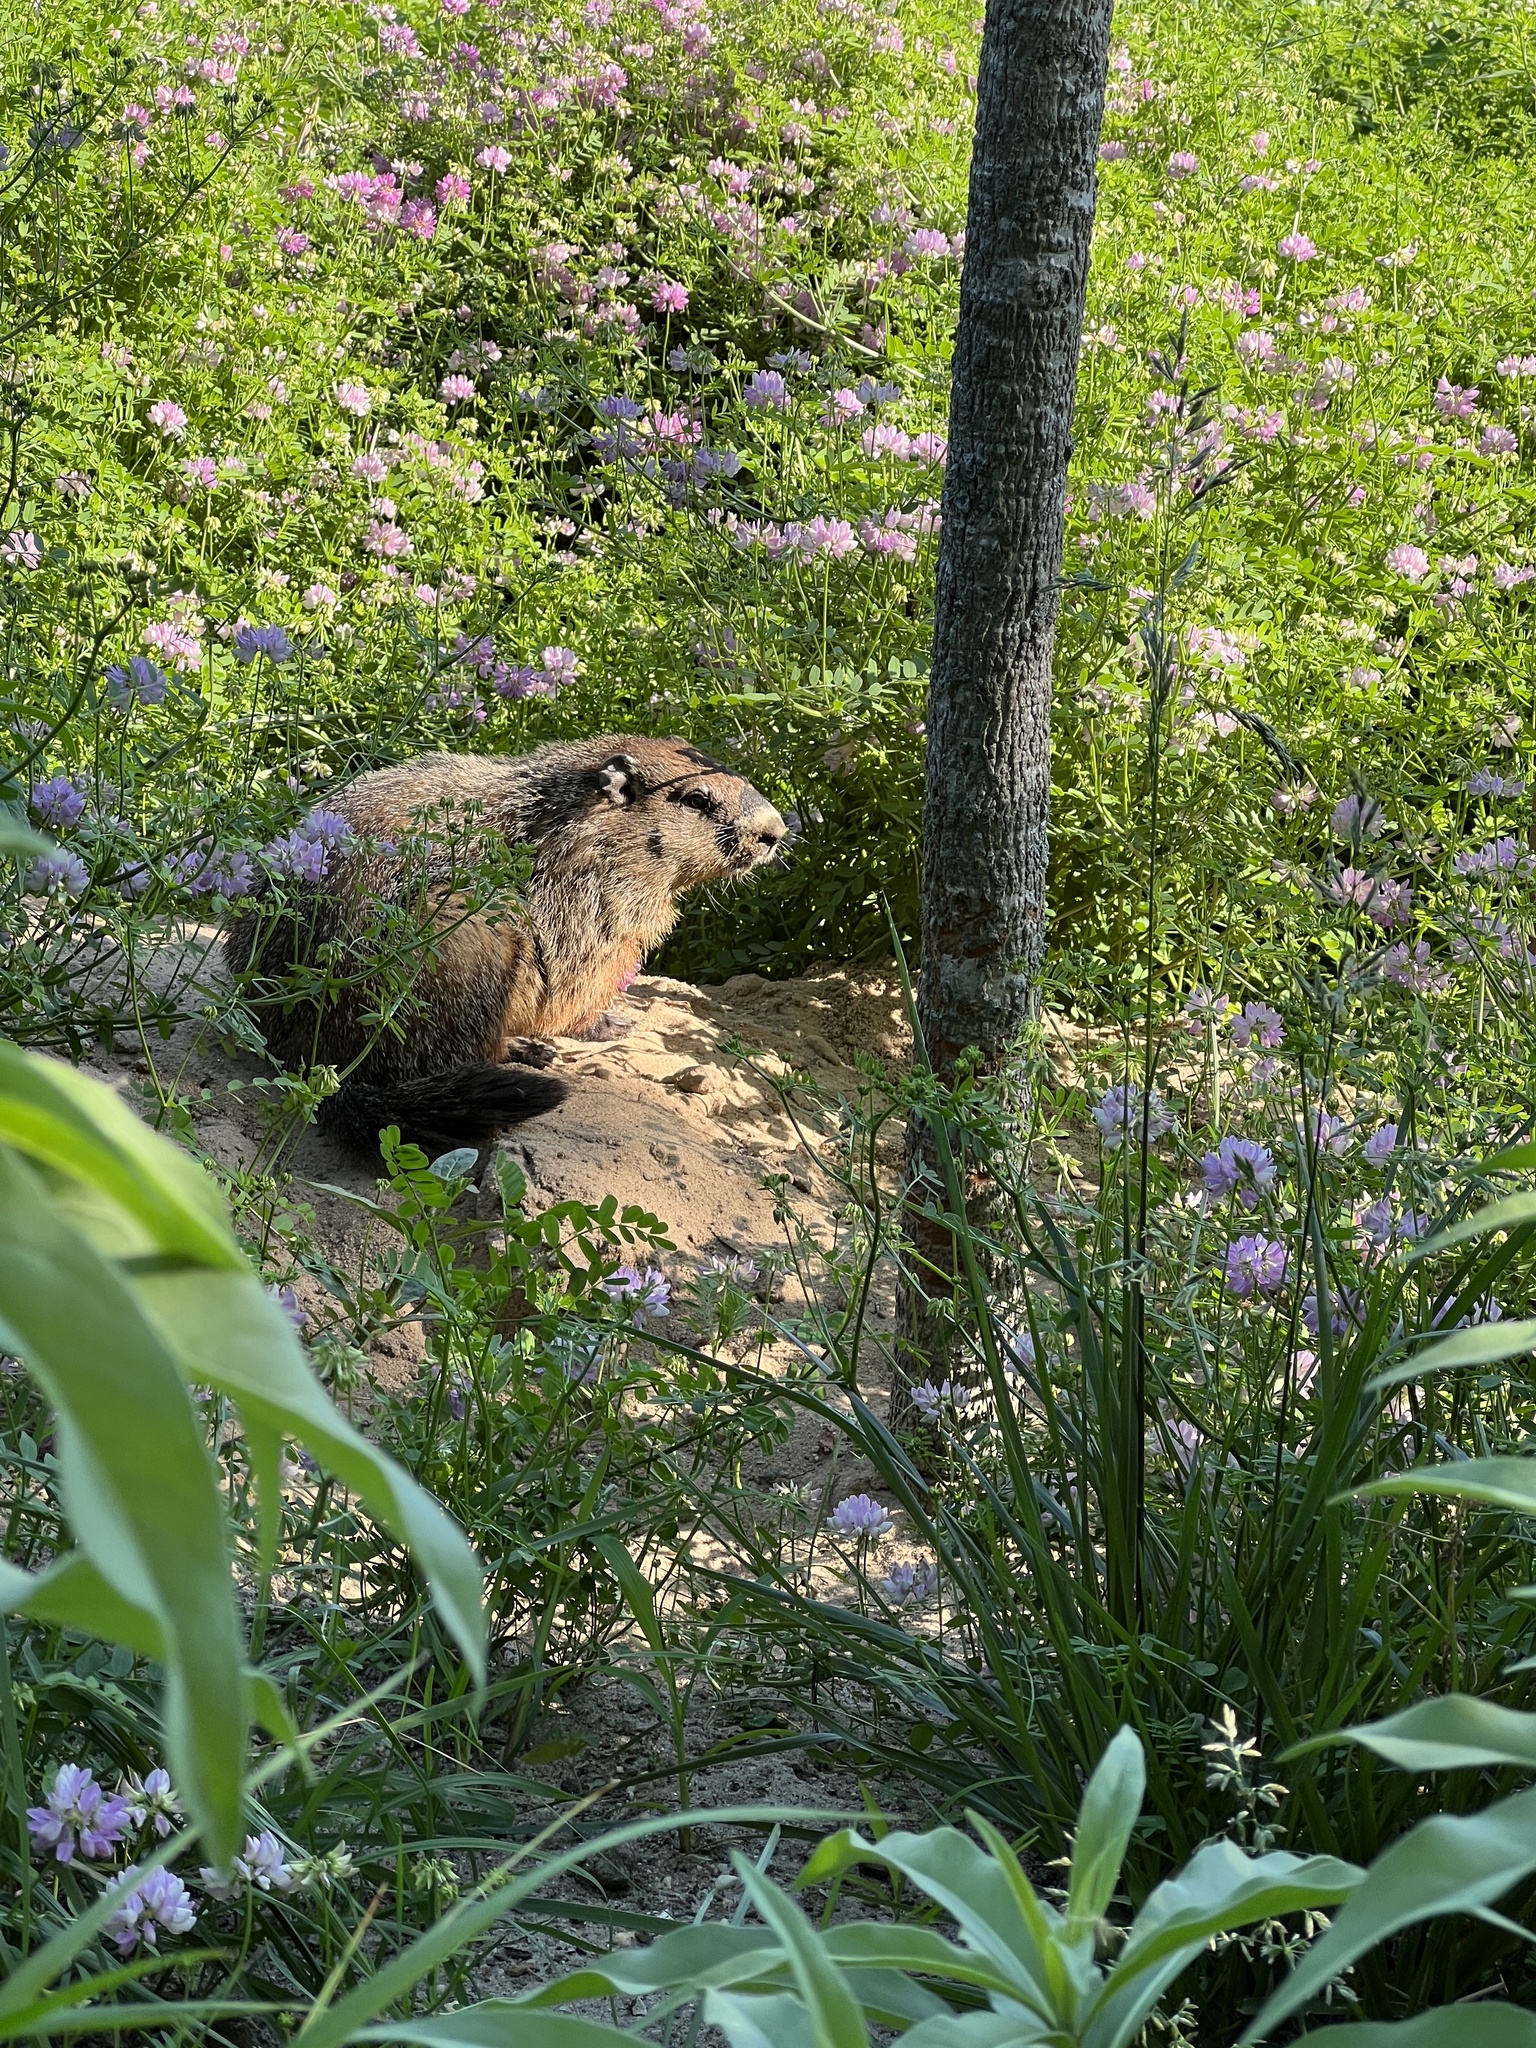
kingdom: Animalia
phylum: Chordata
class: Mammalia
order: Rodentia
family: Sciuridae
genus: Marmota
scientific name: Marmota monax
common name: Groundhog
